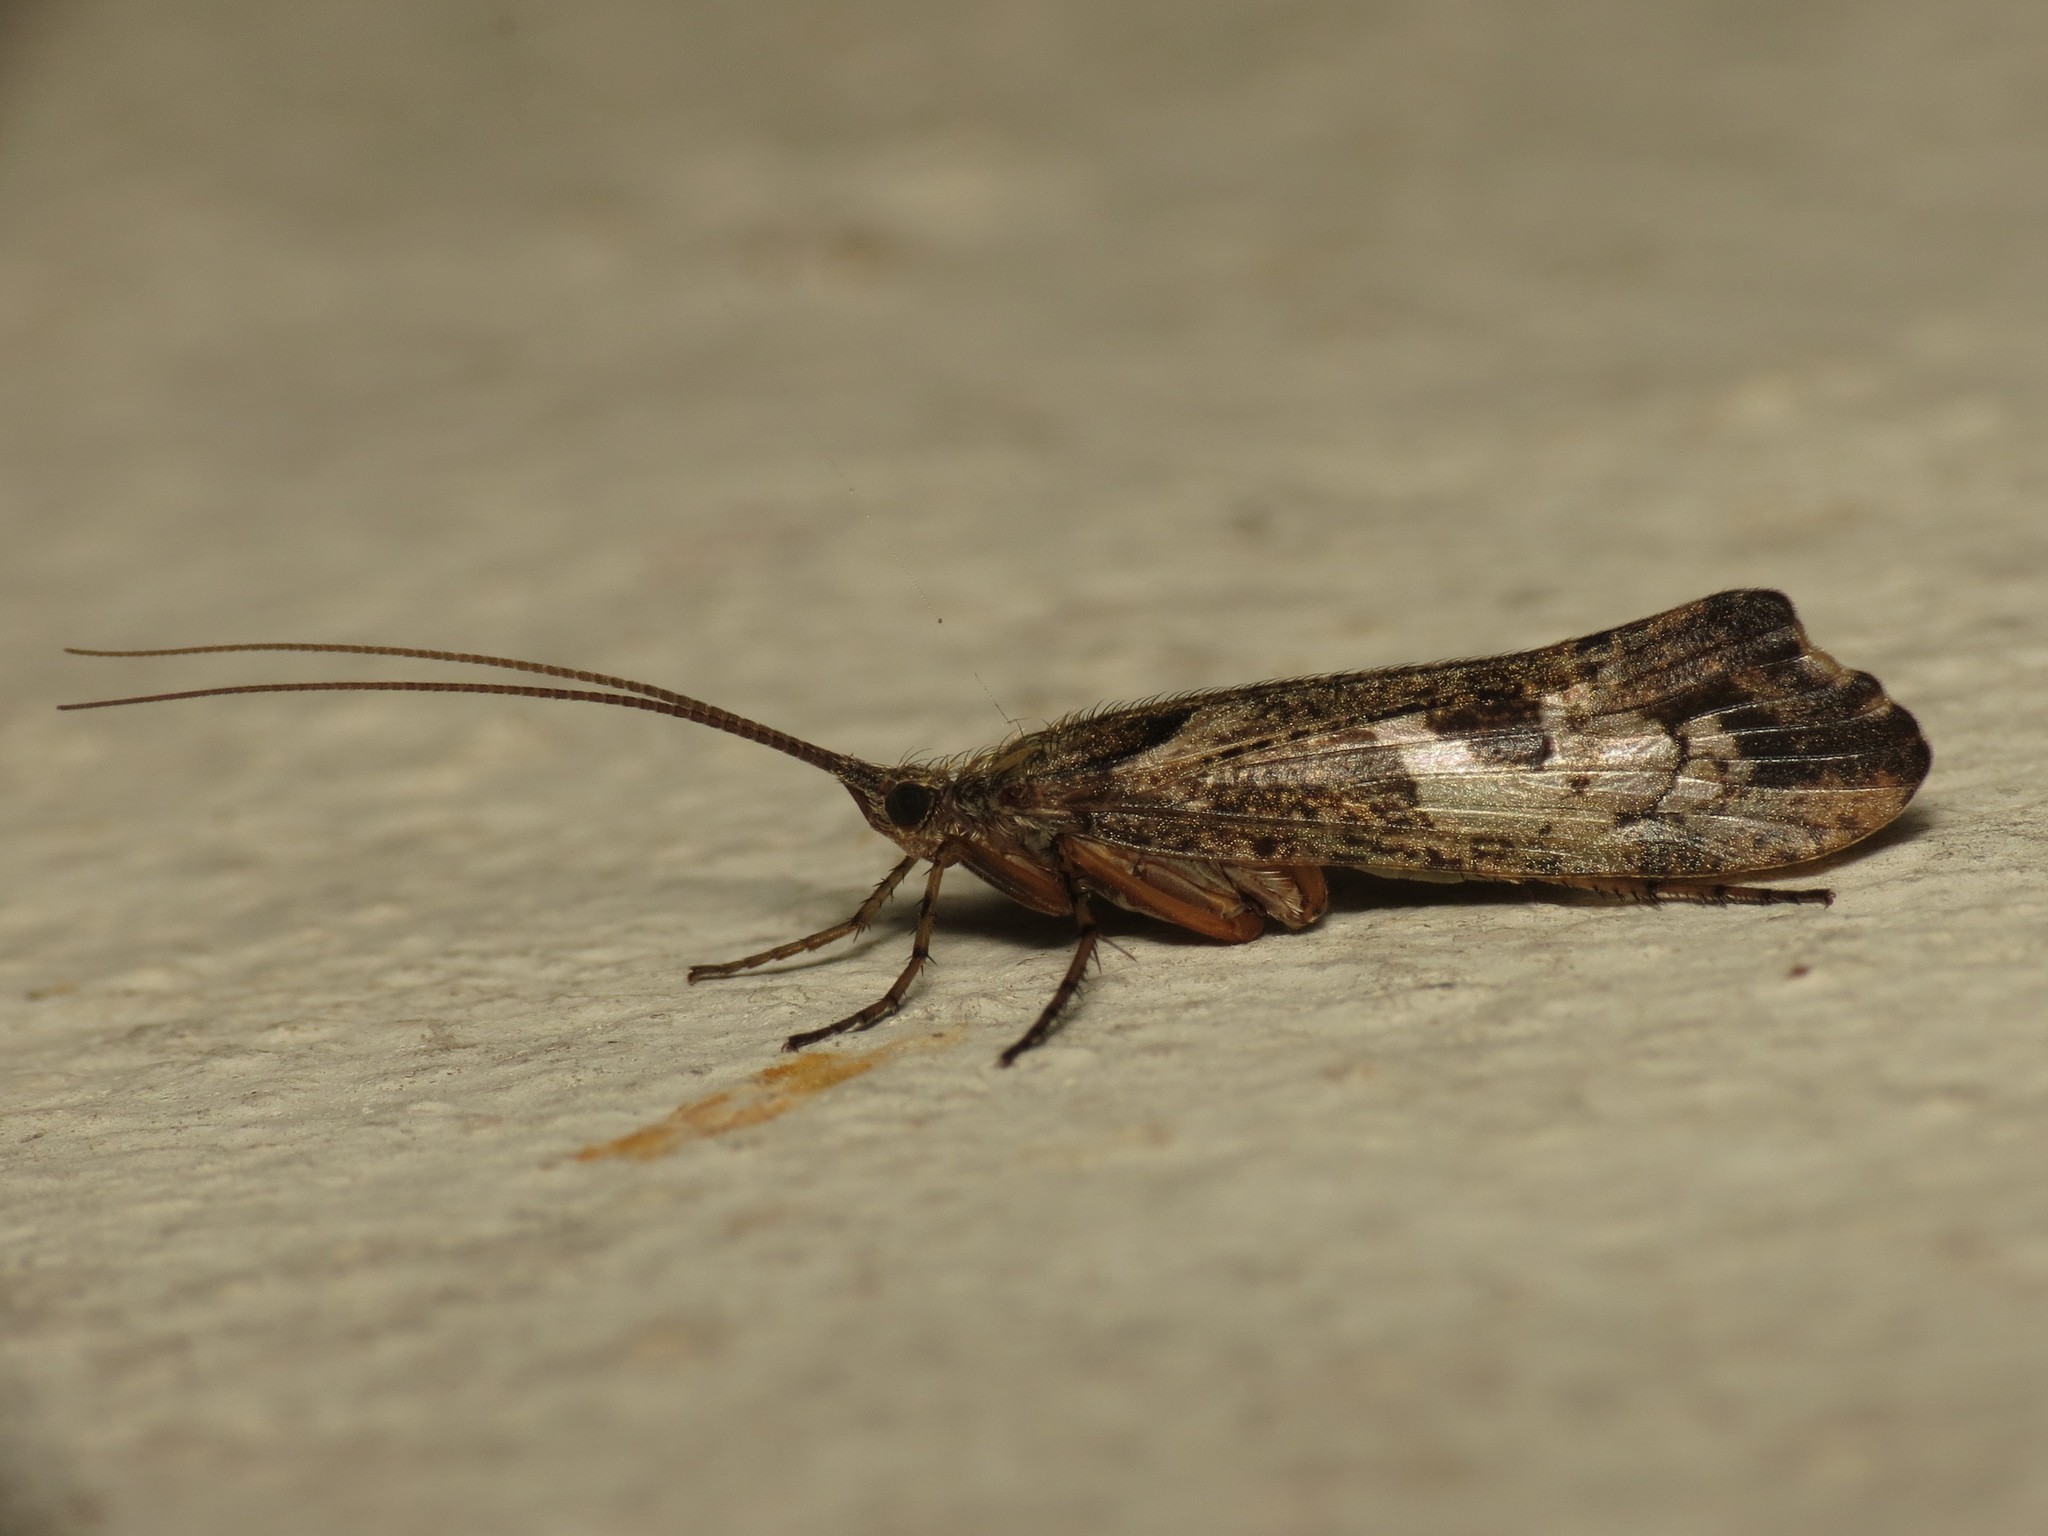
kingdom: Animalia
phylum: Arthropoda
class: Insecta
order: Trichoptera
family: Limnephilidae
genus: Glyphotaelius
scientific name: Glyphotaelius pellucidus
